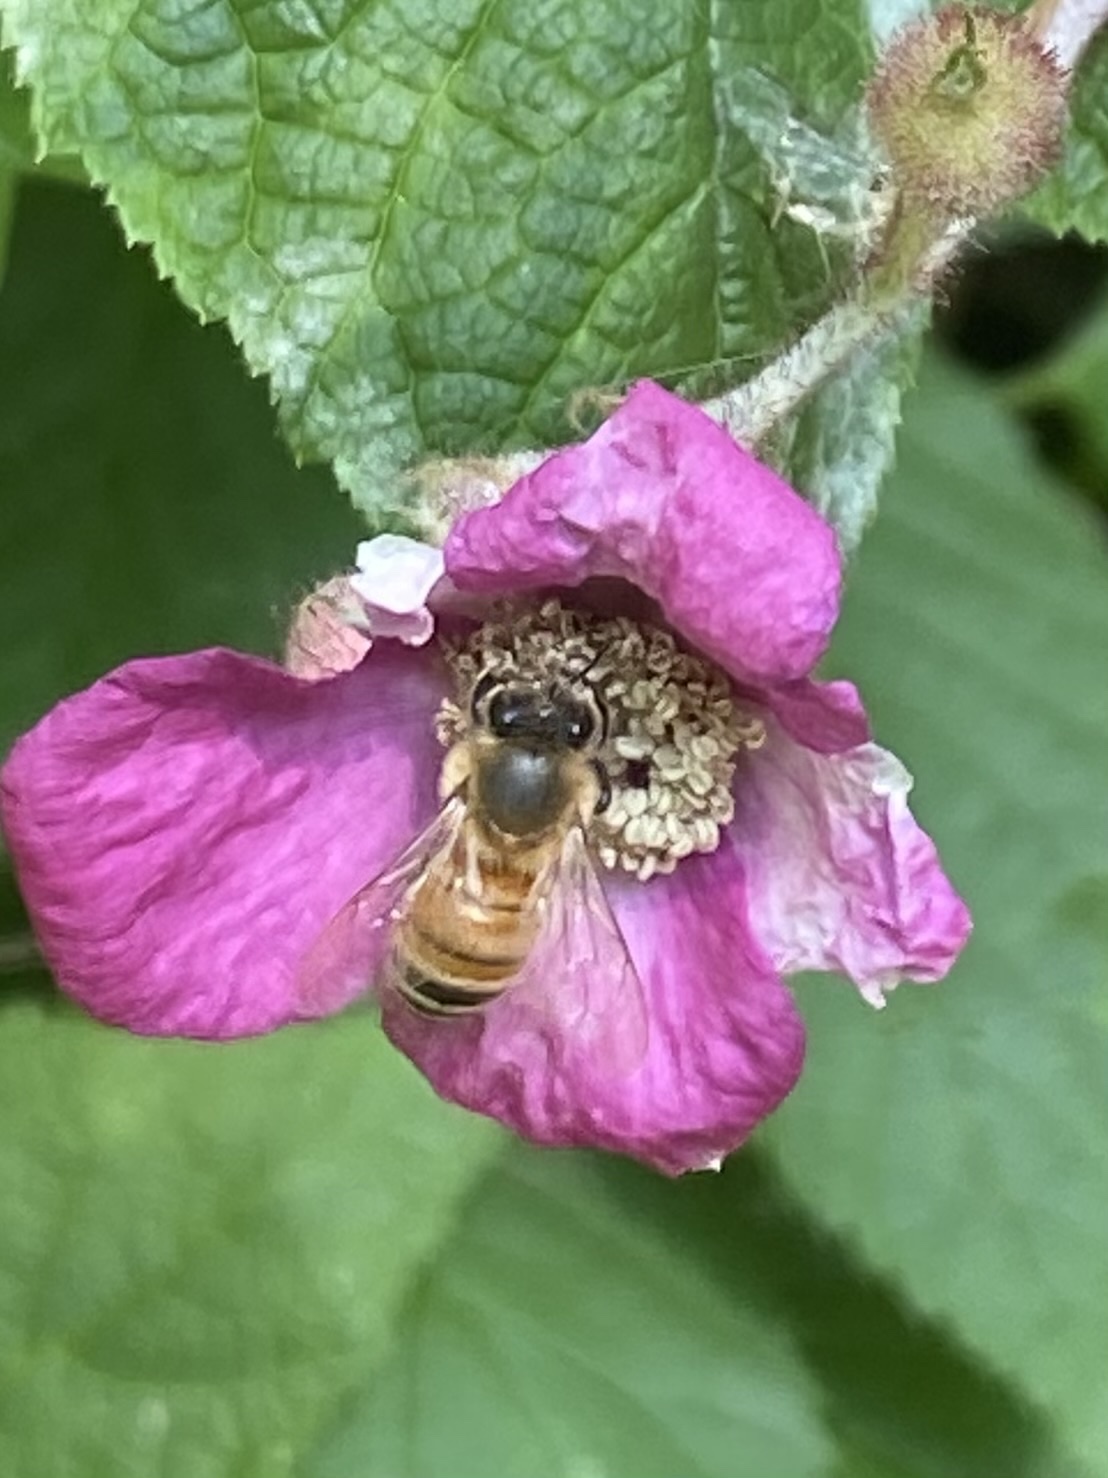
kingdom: Animalia
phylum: Arthropoda
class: Insecta
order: Hymenoptera
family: Apidae
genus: Apis
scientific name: Apis mellifera
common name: Honey bee
